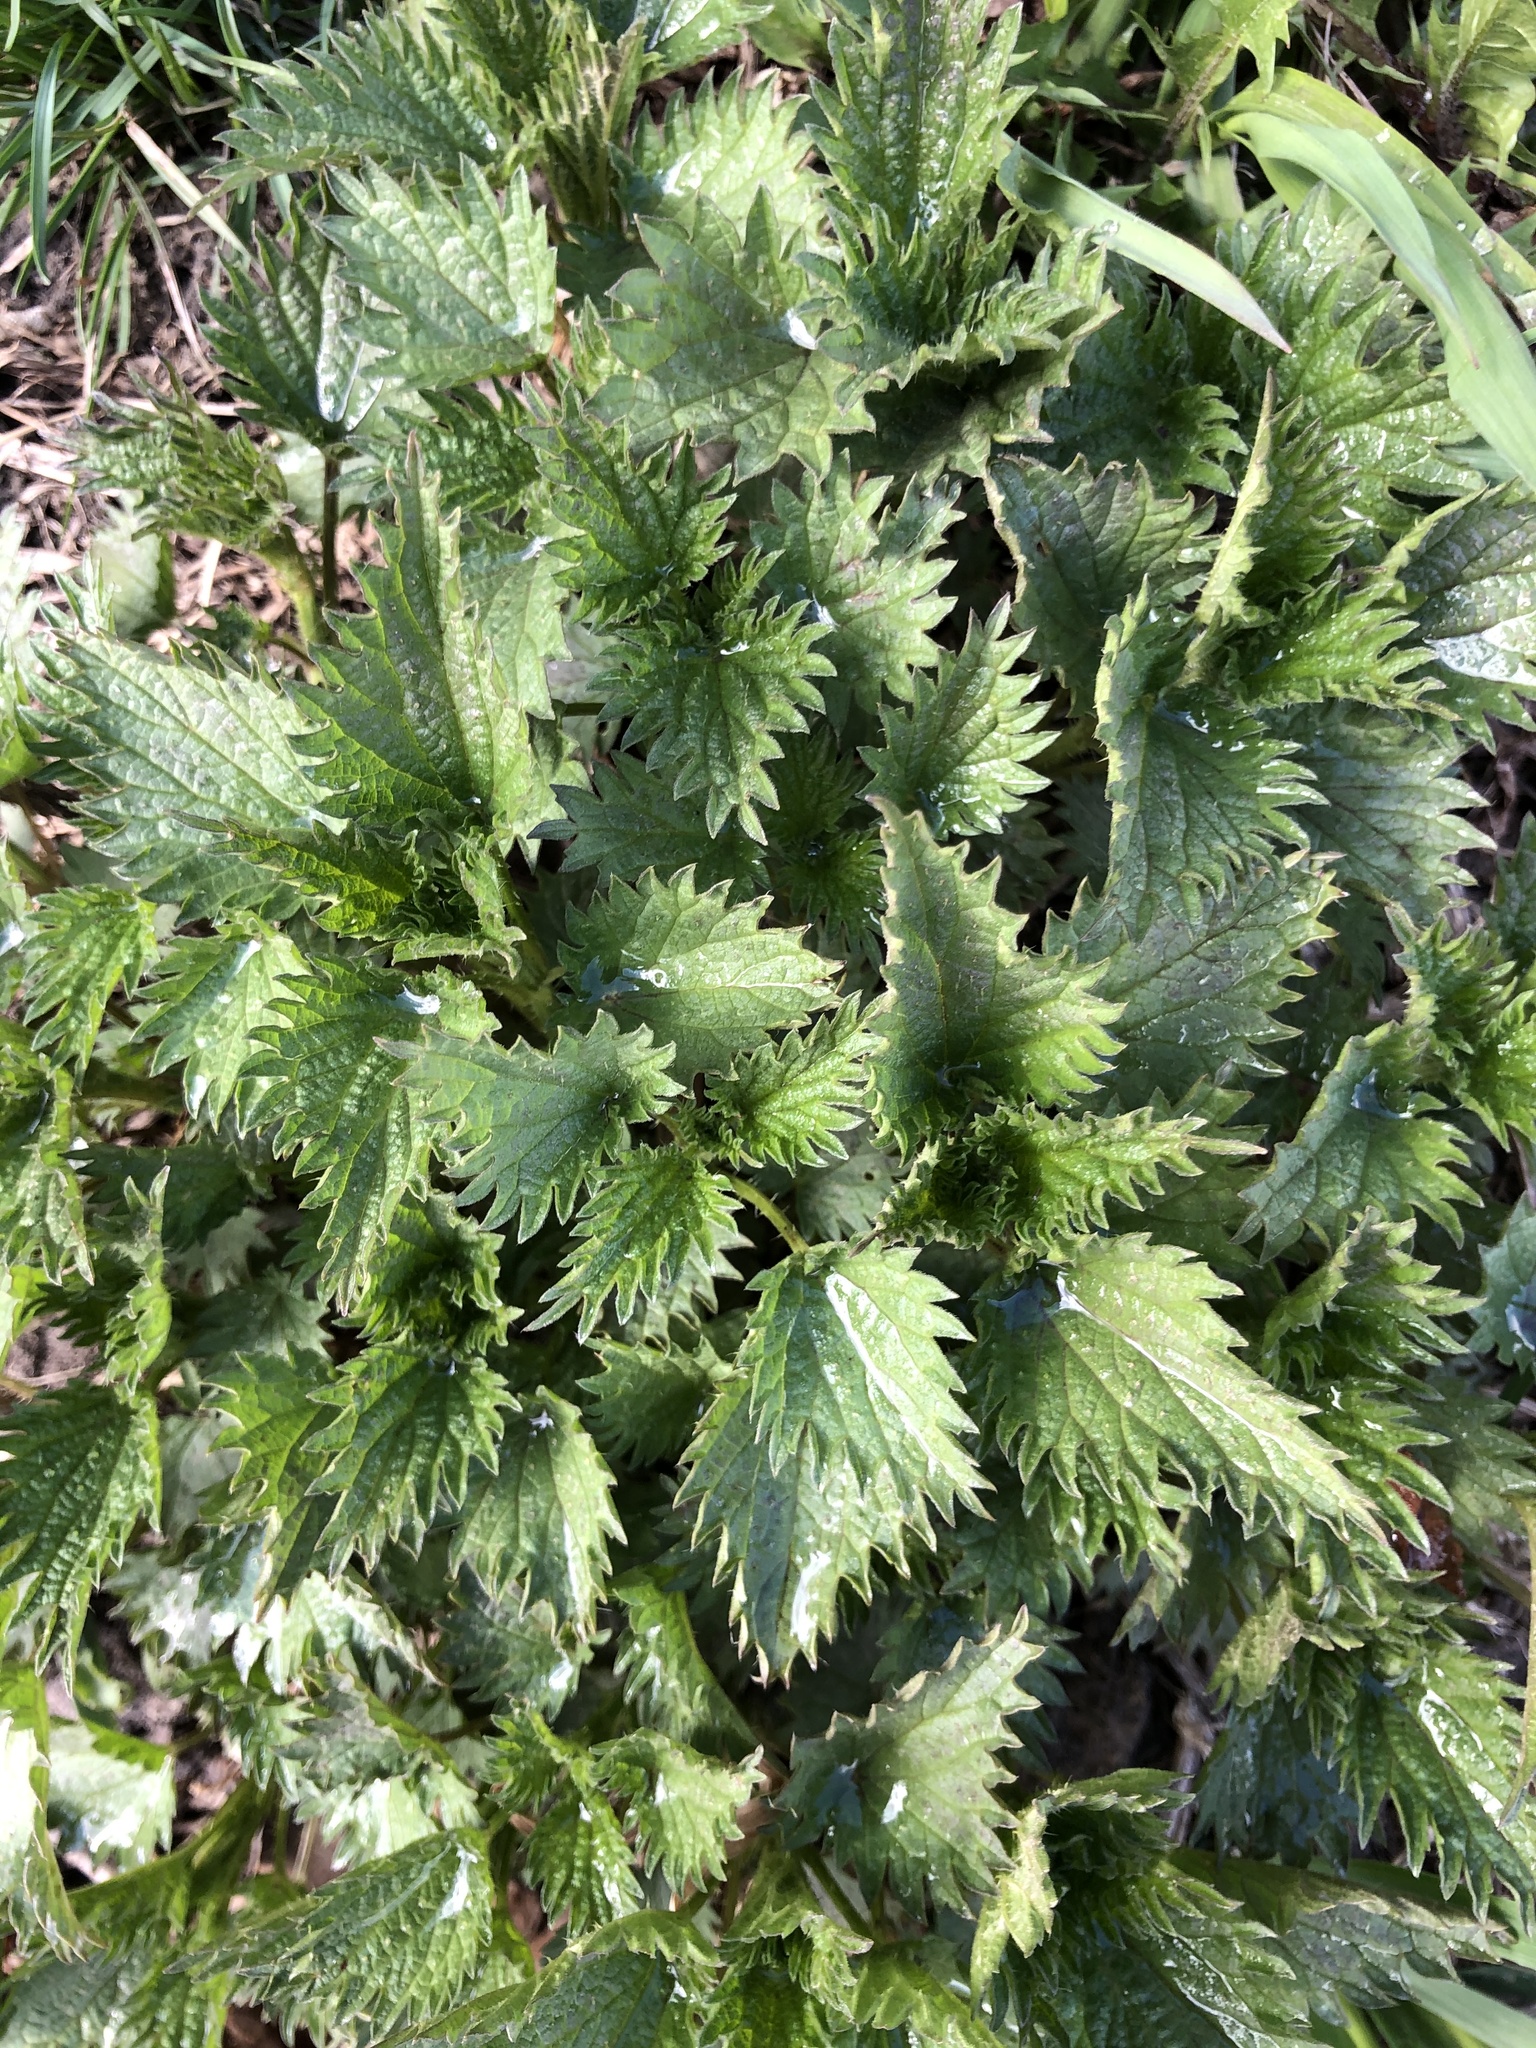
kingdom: Plantae
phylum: Tracheophyta
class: Magnoliopsida
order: Rosales
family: Urticaceae
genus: Urtica
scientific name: Urtica dioica
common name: Common nettle
